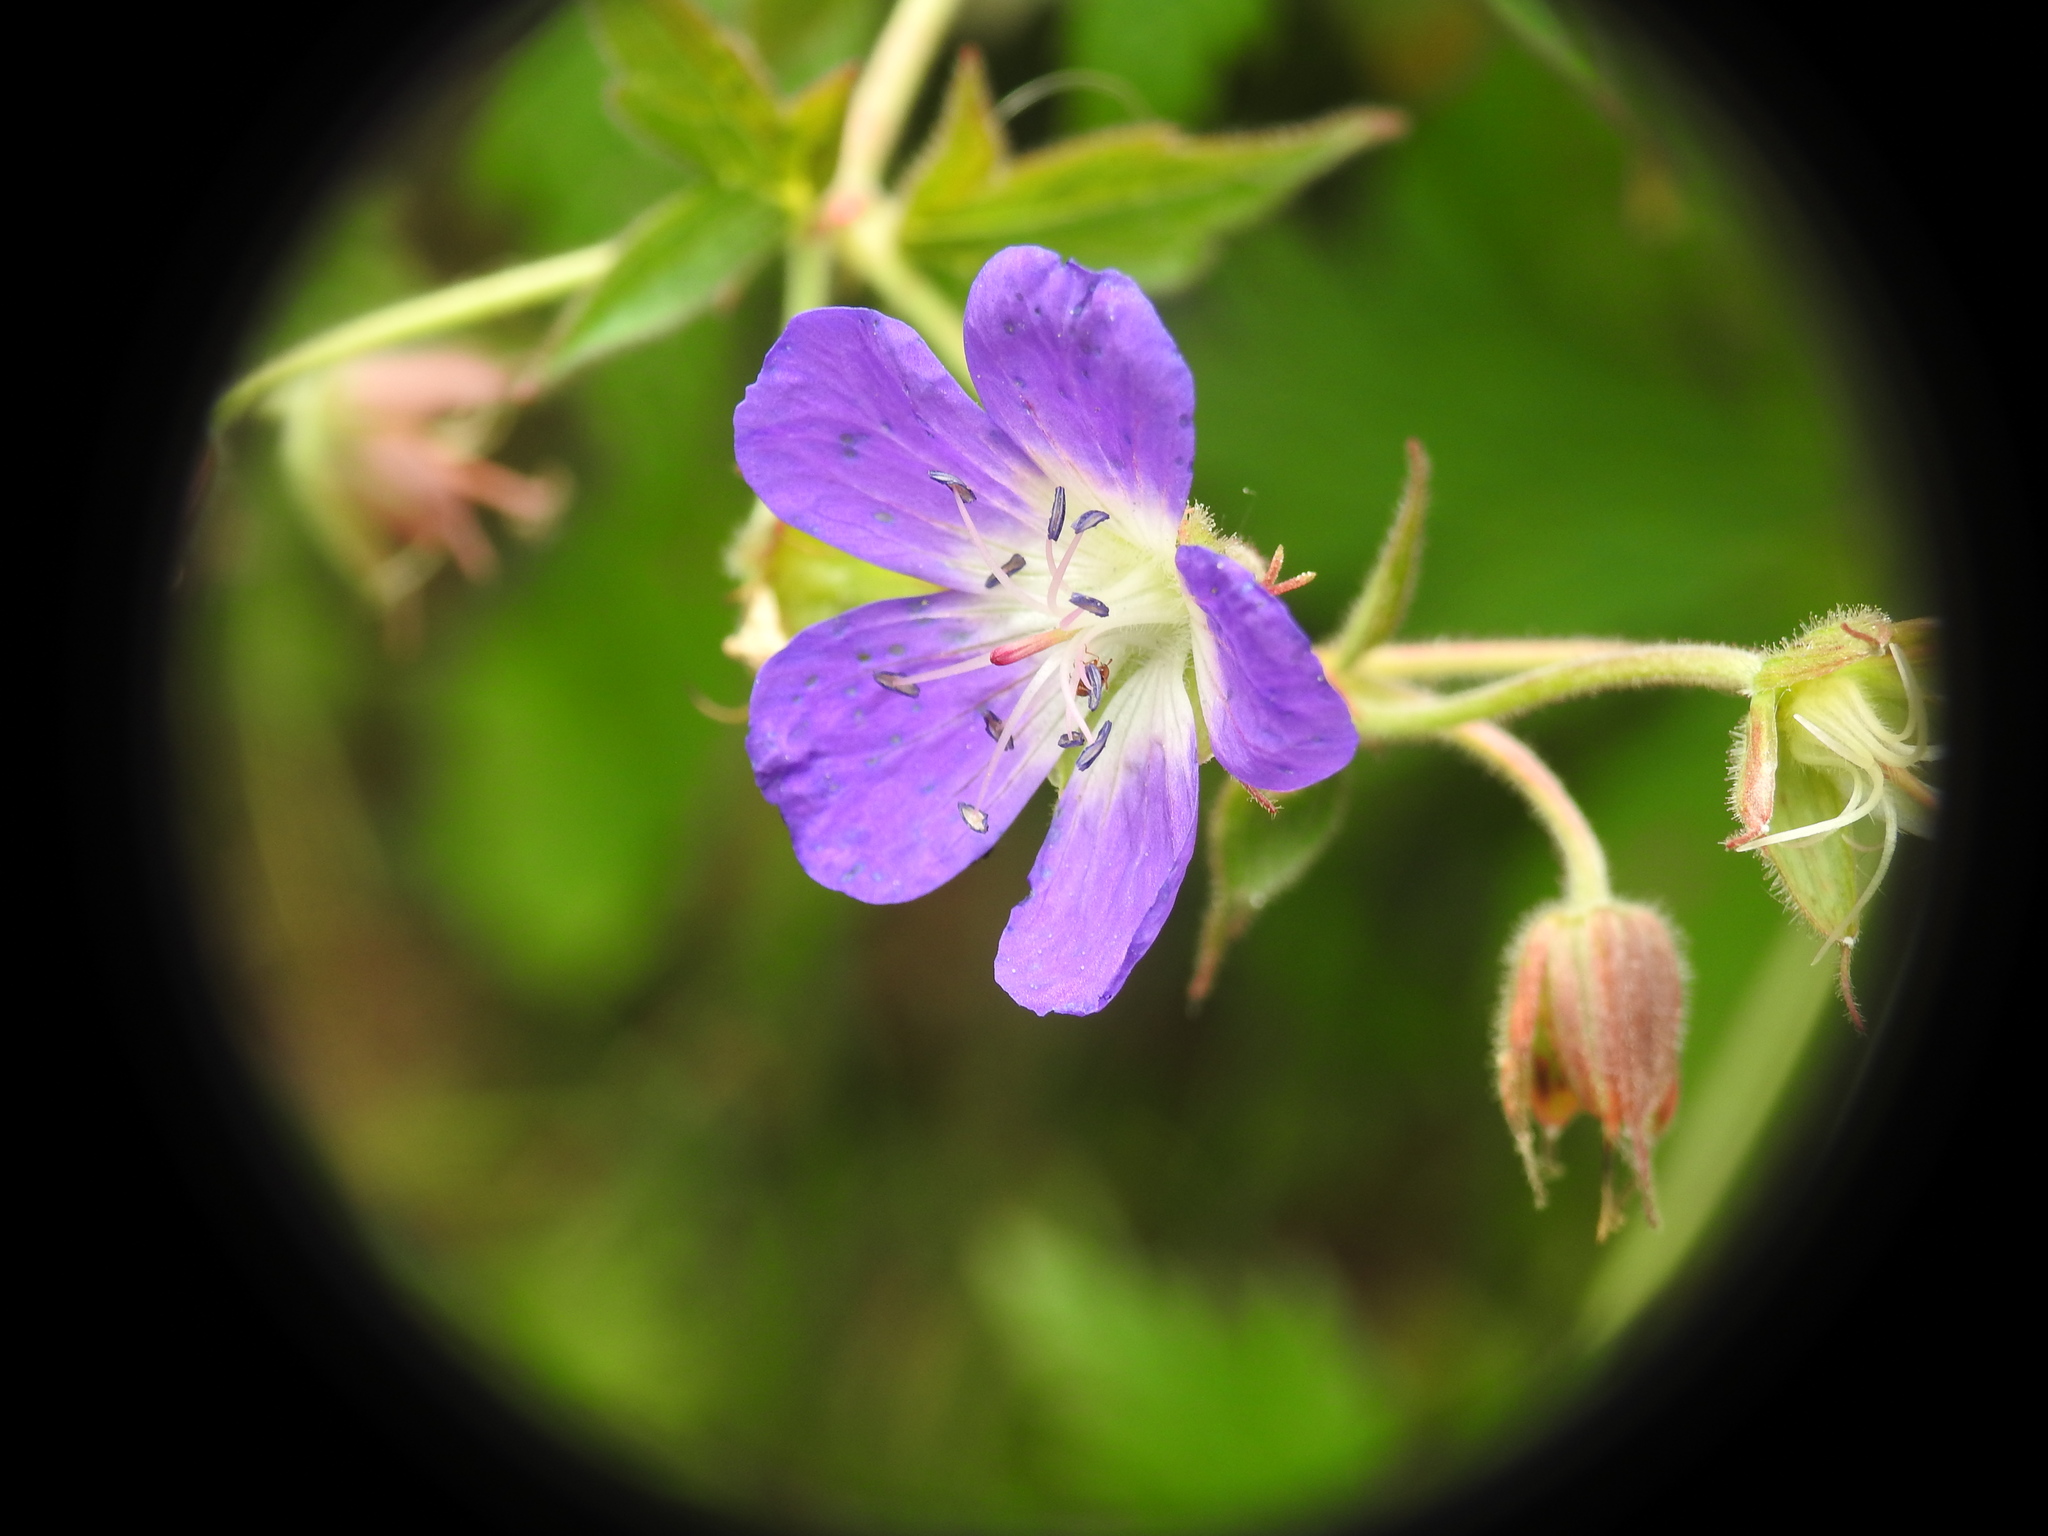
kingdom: Plantae
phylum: Tracheophyta
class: Magnoliopsida
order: Geraniales
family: Geraniaceae
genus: Geranium
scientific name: Geranium sylvaticum
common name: Wood crane's-bill
